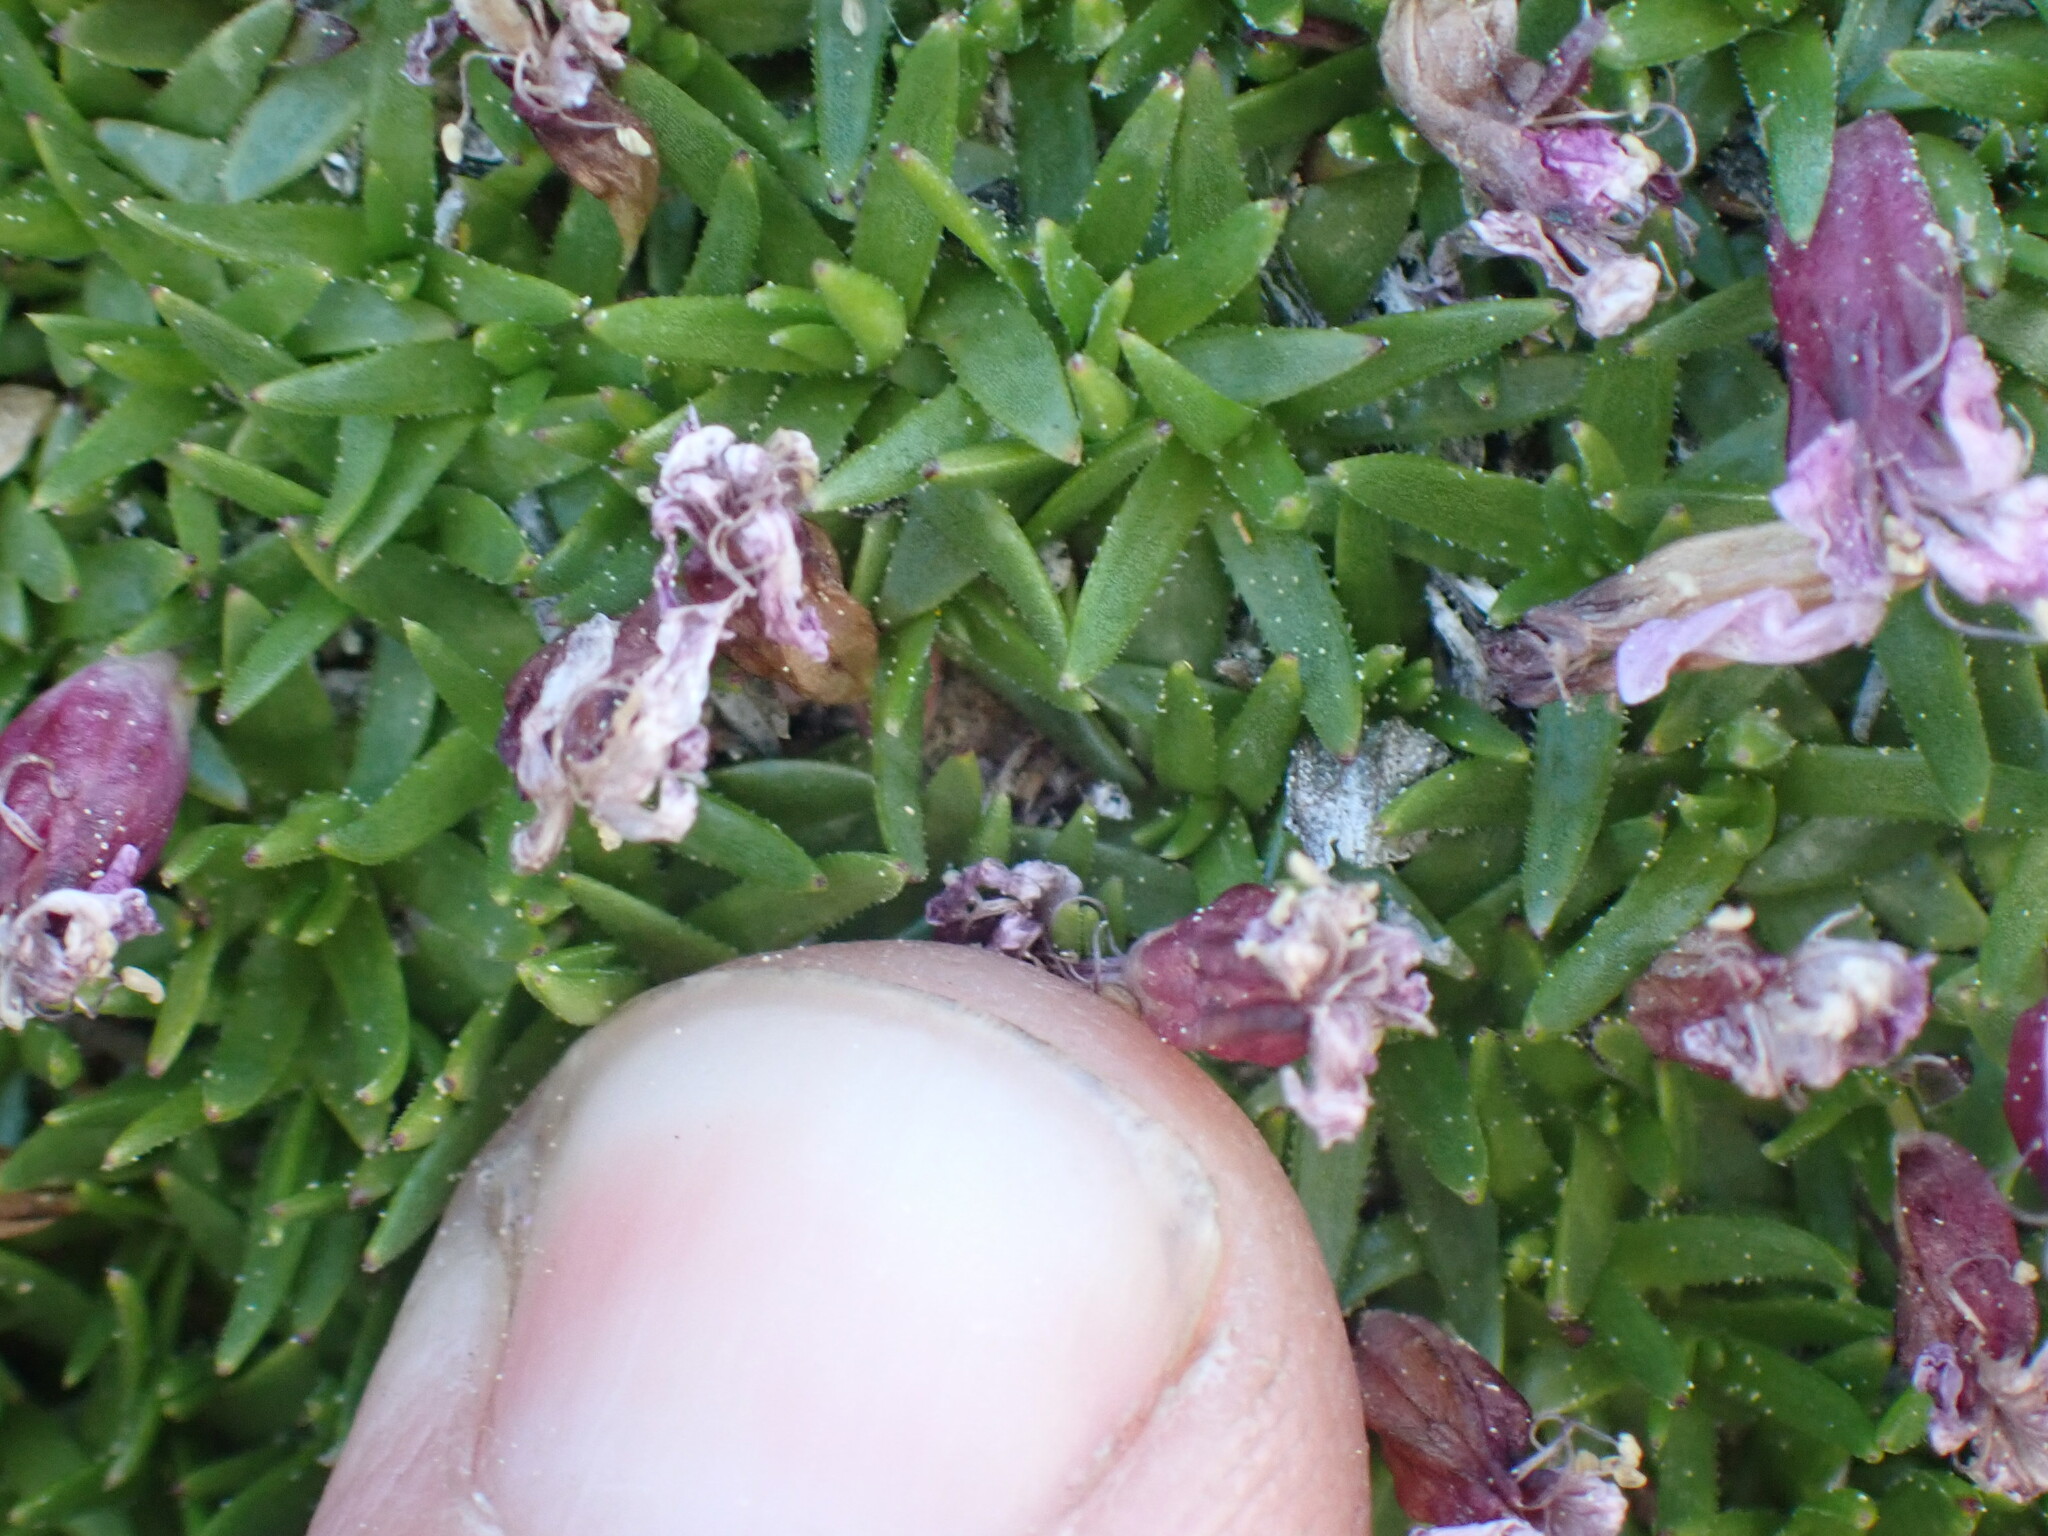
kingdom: Plantae
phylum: Tracheophyta
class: Magnoliopsida
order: Caryophyllales
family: Caryophyllaceae
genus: Silene
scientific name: Silene acaulis
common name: Moss campion
